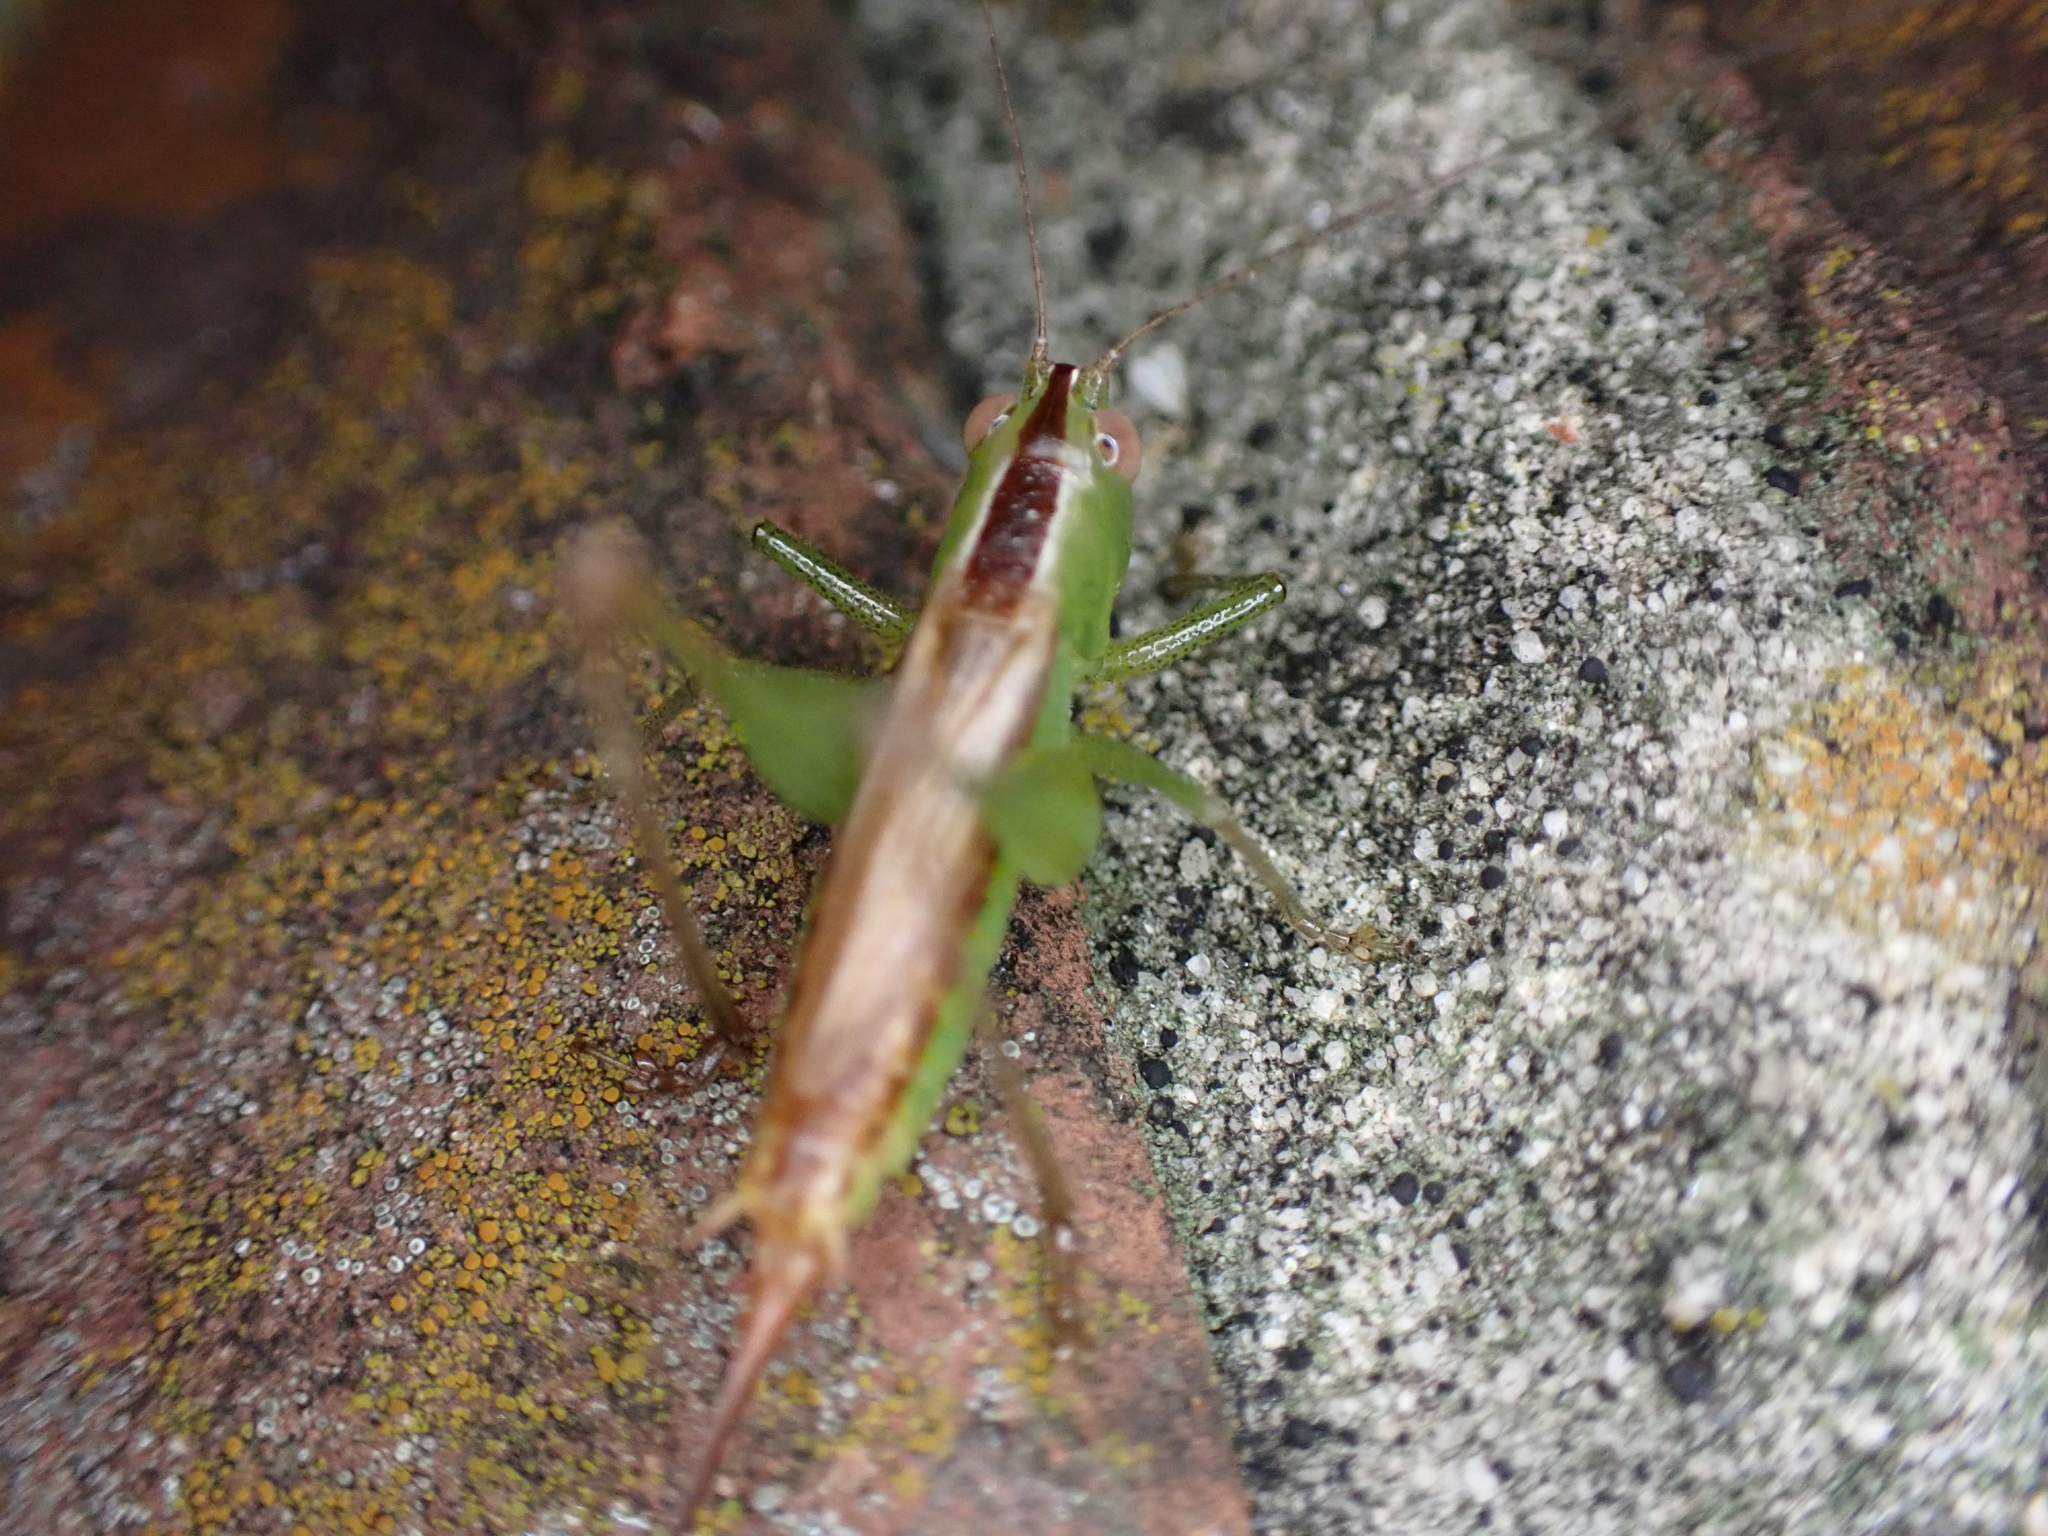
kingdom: Animalia
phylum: Arthropoda
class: Insecta
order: Orthoptera
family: Tettigoniidae
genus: Conocephalus
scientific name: Conocephalus brevipennis
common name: Short-winged meadow katydid
